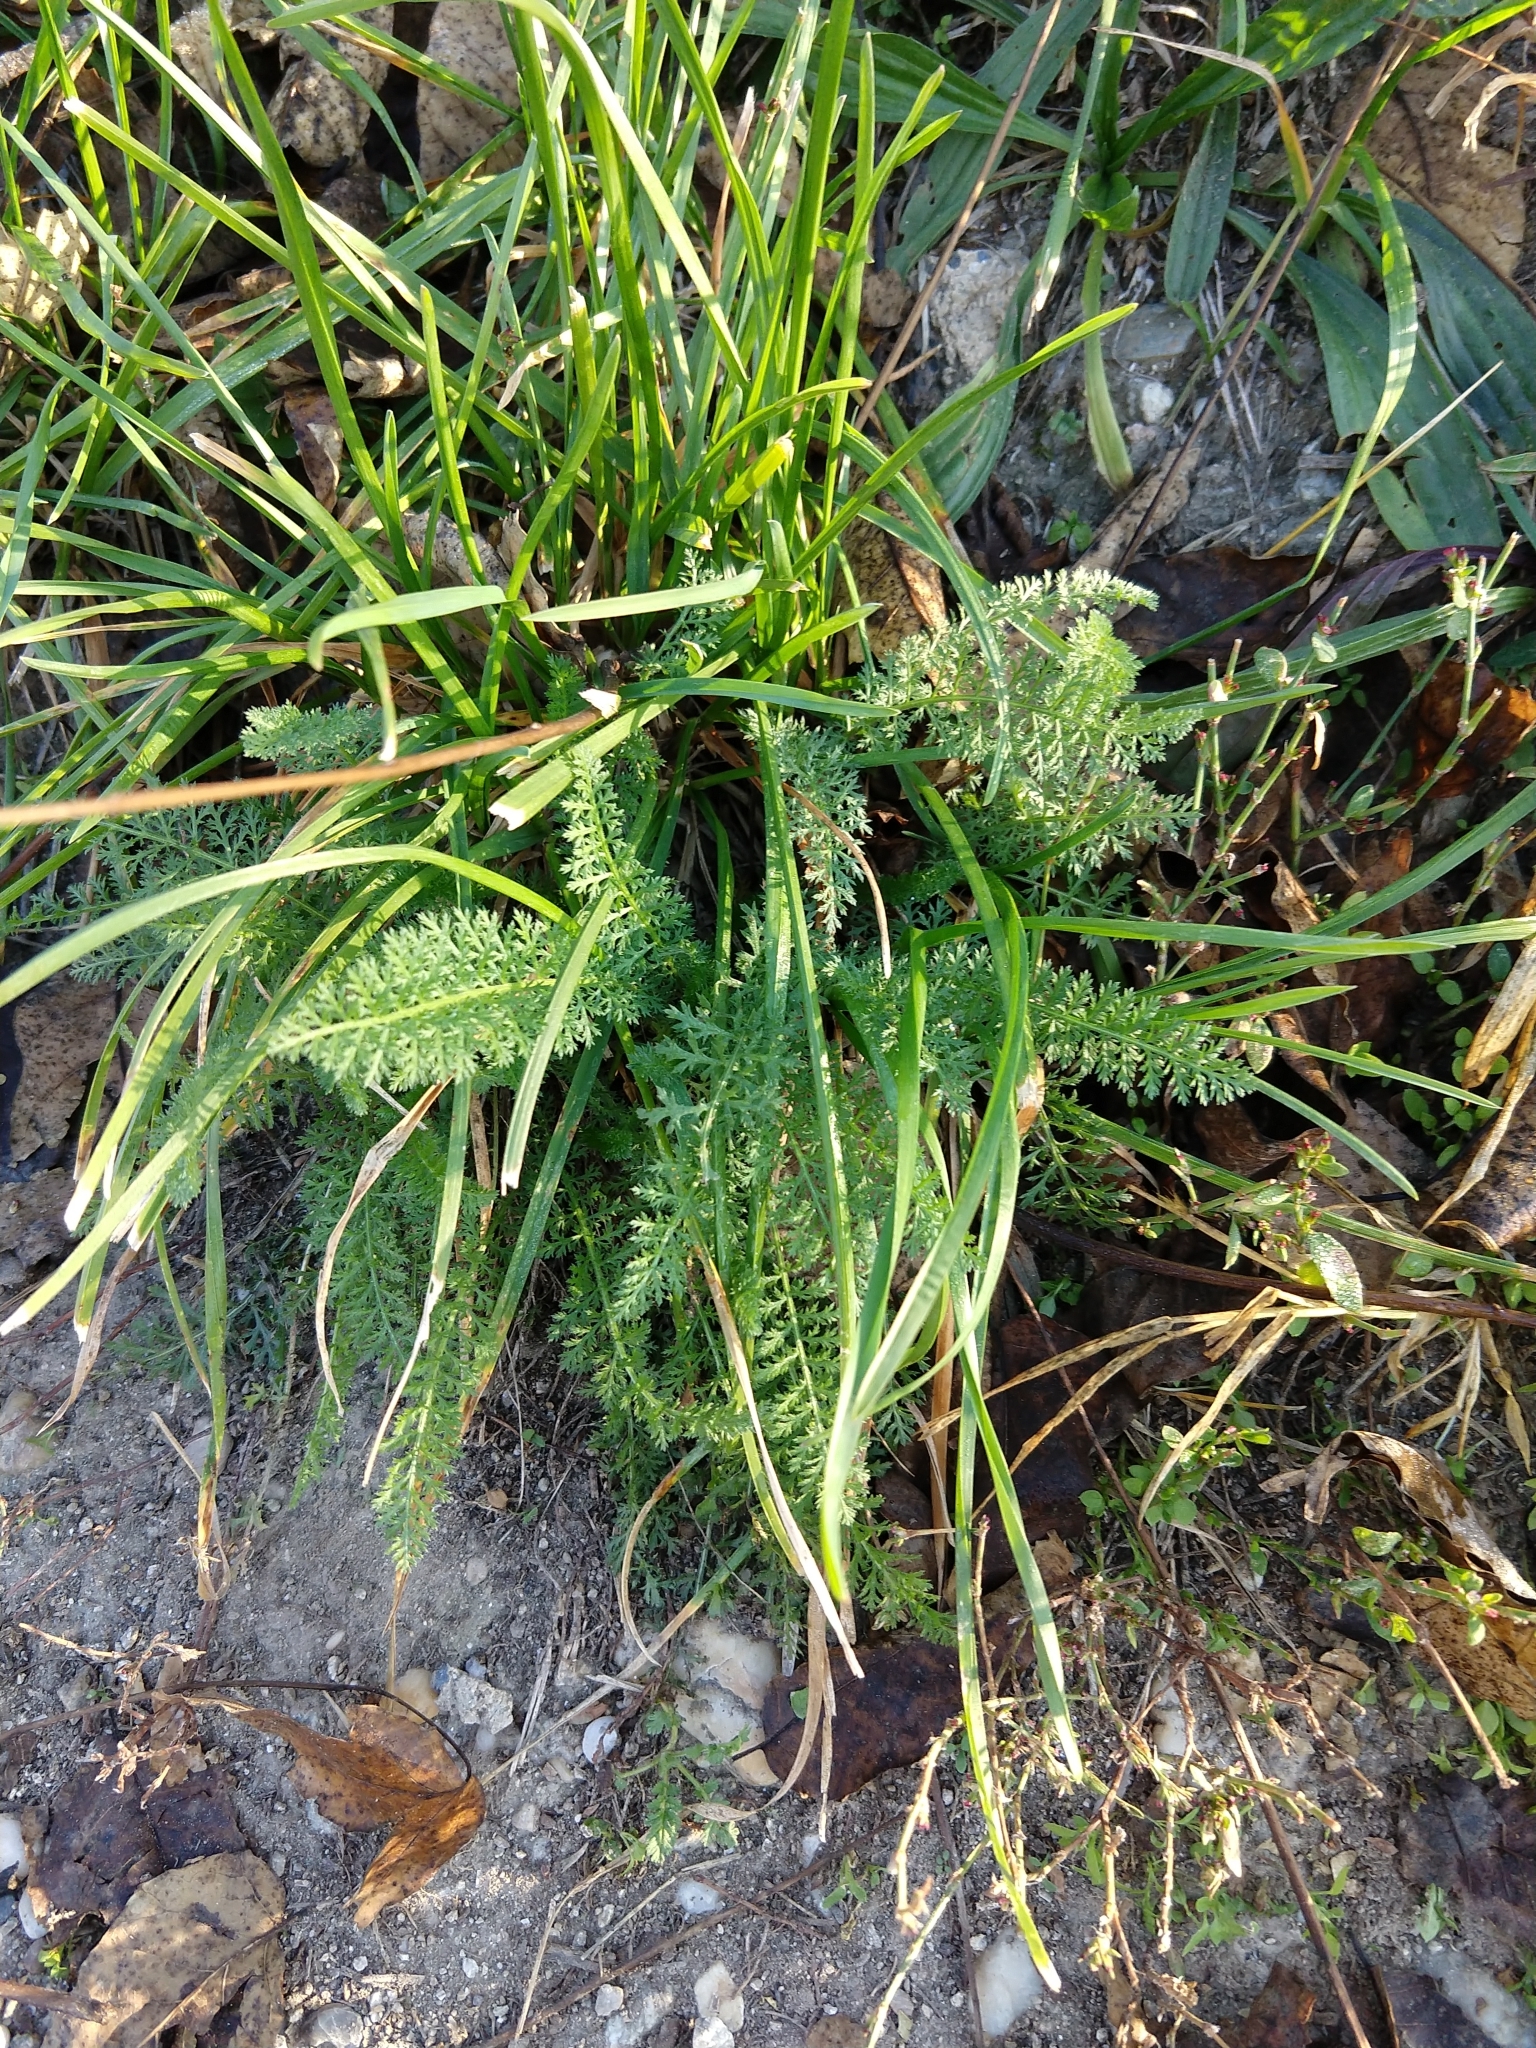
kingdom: Plantae
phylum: Tracheophyta
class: Magnoliopsida
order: Asterales
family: Asteraceae
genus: Achillea
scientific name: Achillea millefolium
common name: Yarrow
